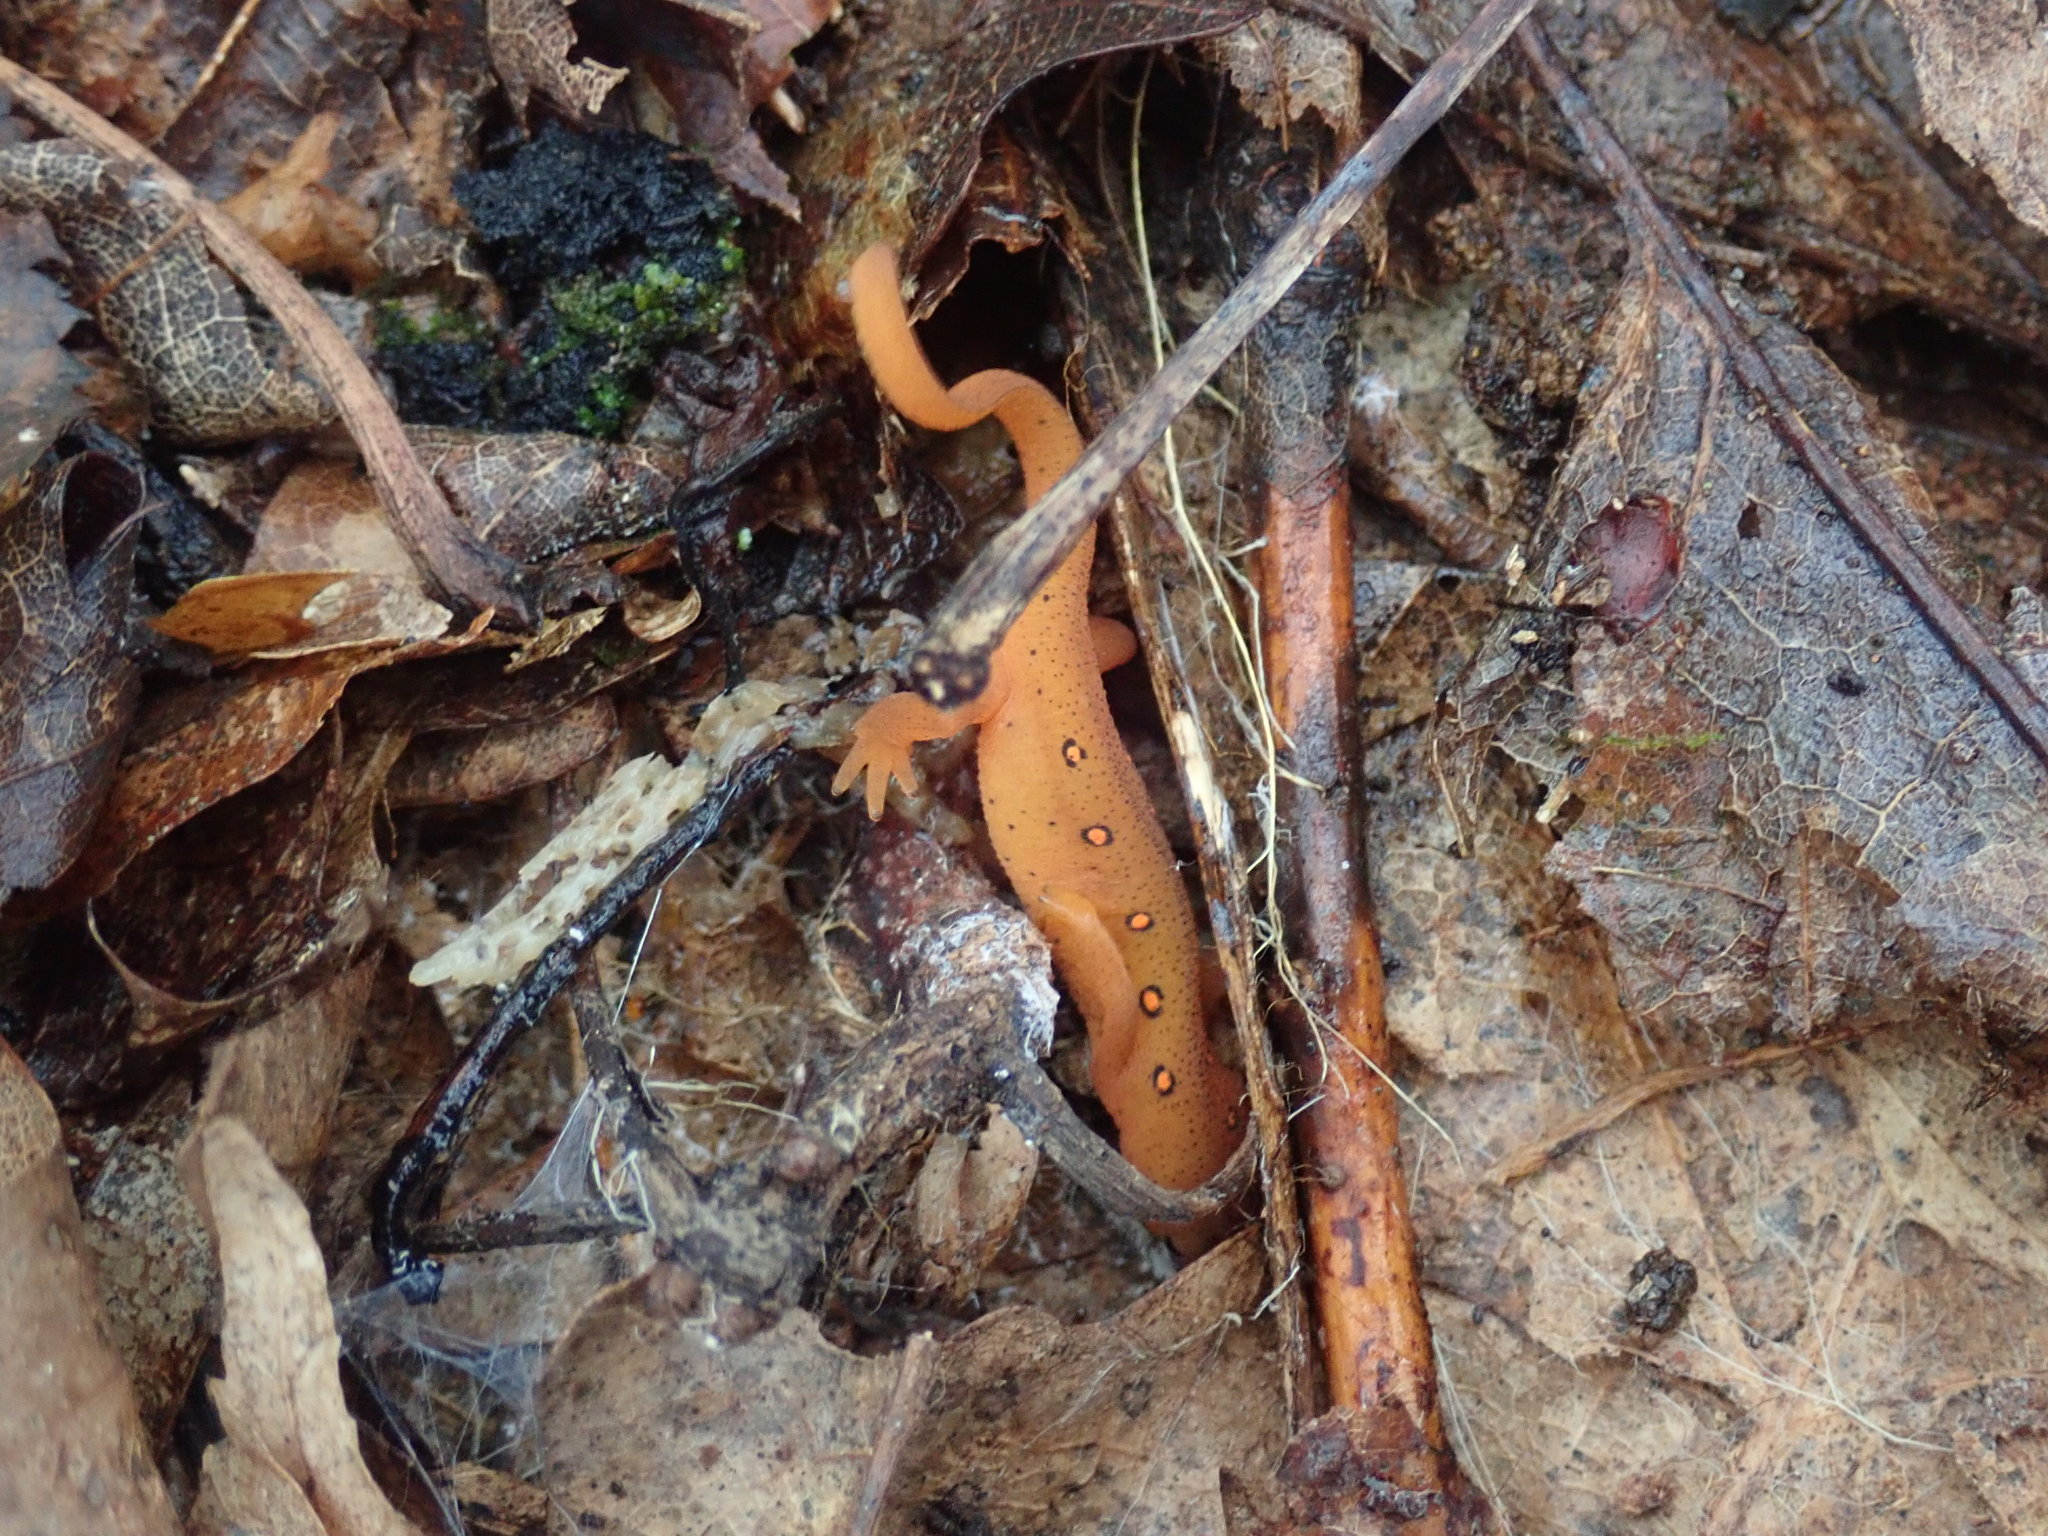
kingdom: Animalia
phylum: Chordata
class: Amphibia
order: Caudata
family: Salamandridae
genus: Notophthalmus
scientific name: Notophthalmus viridescens
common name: Eastern newt
